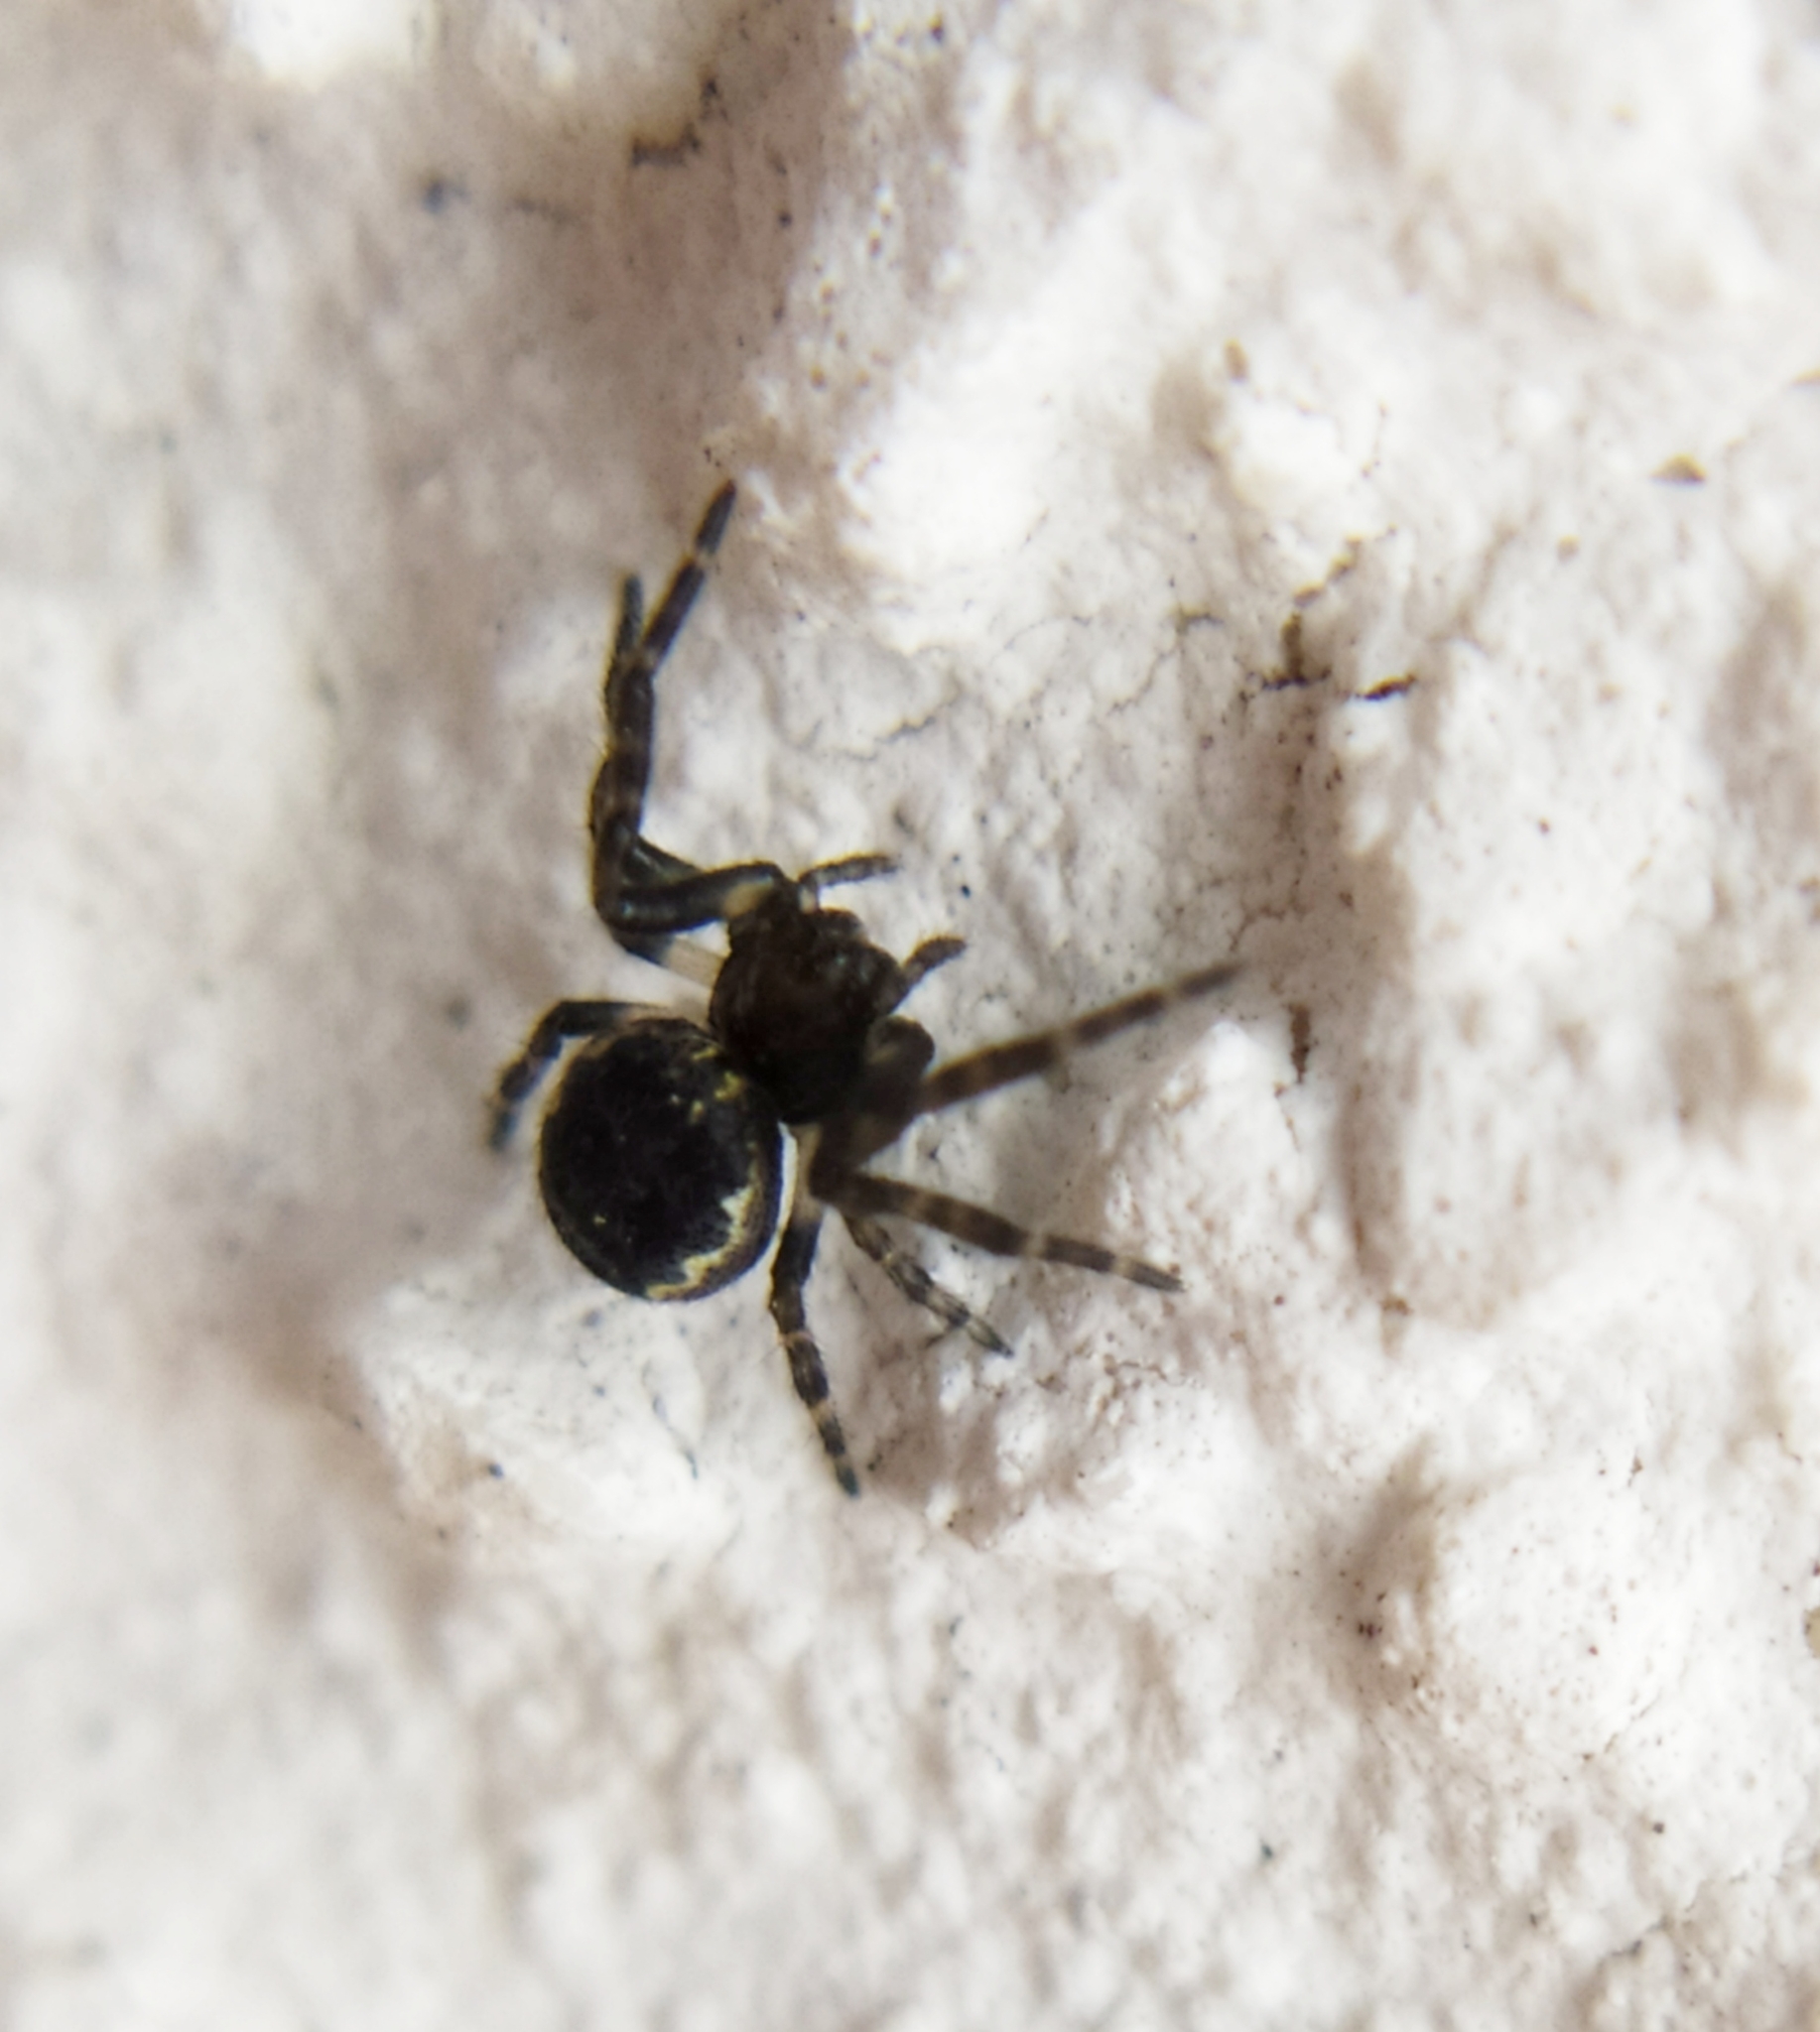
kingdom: Animalia
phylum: Arthropoda
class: Arachnida
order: Araneae
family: Araneidae
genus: Nuctenea
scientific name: Nuctenea umbratica
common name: Toad spider
